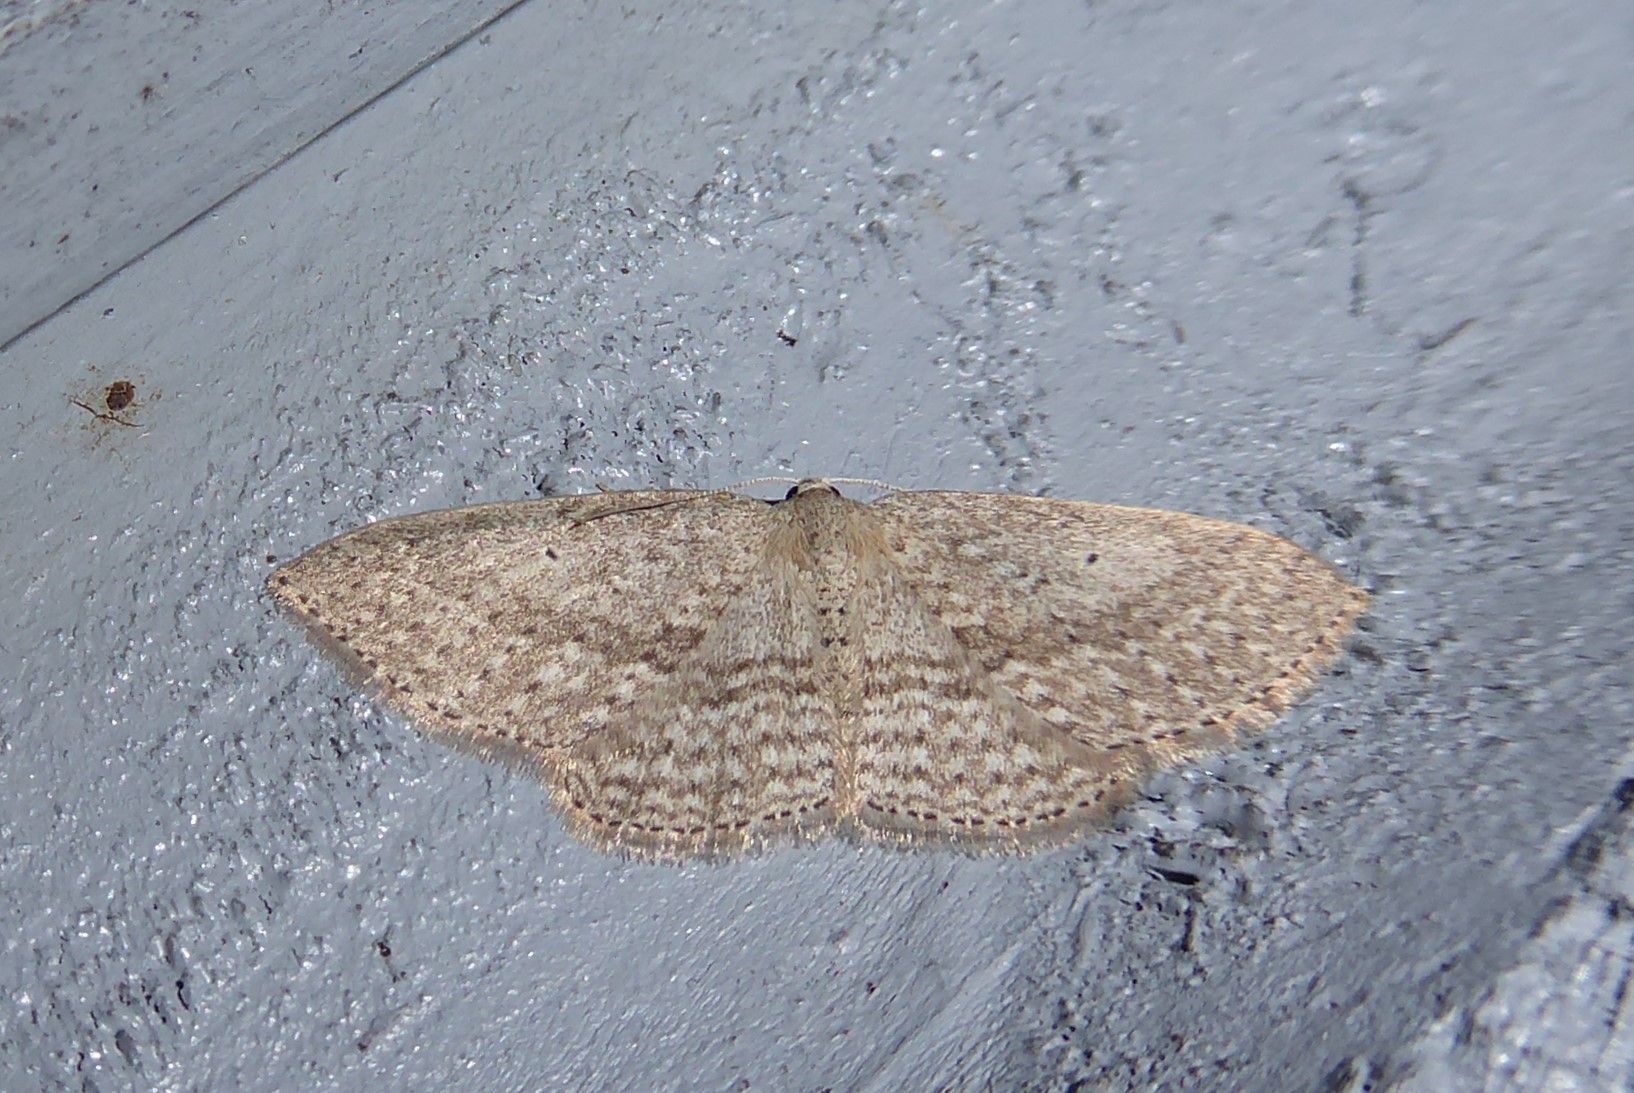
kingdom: Animalia
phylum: Arthropoda
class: Insecta
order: Lepidoptera
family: Geometridae
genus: Poecilasthena
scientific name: Poecilasthena schistaria
